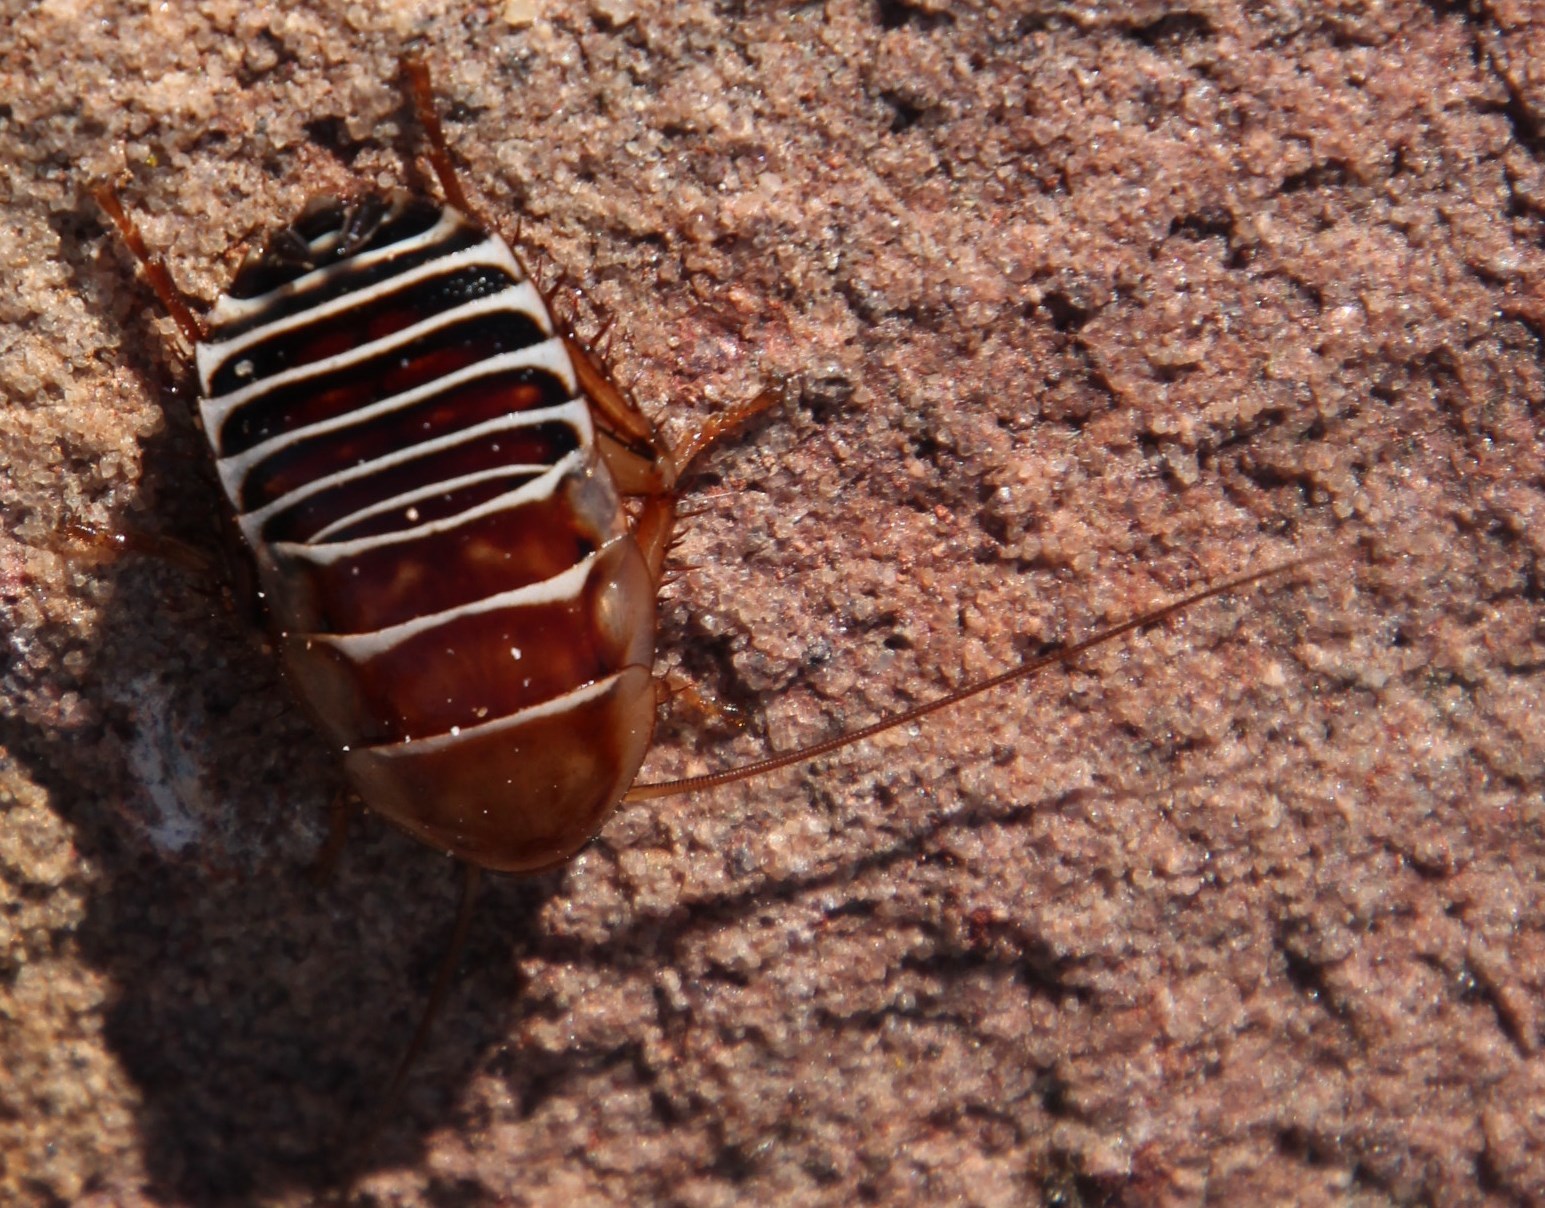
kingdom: Animalia
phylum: Arthropoda
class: Insecta
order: Blattodea
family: Ectobiidae
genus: Temnopteryx
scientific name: Temnopteryx phalerata
